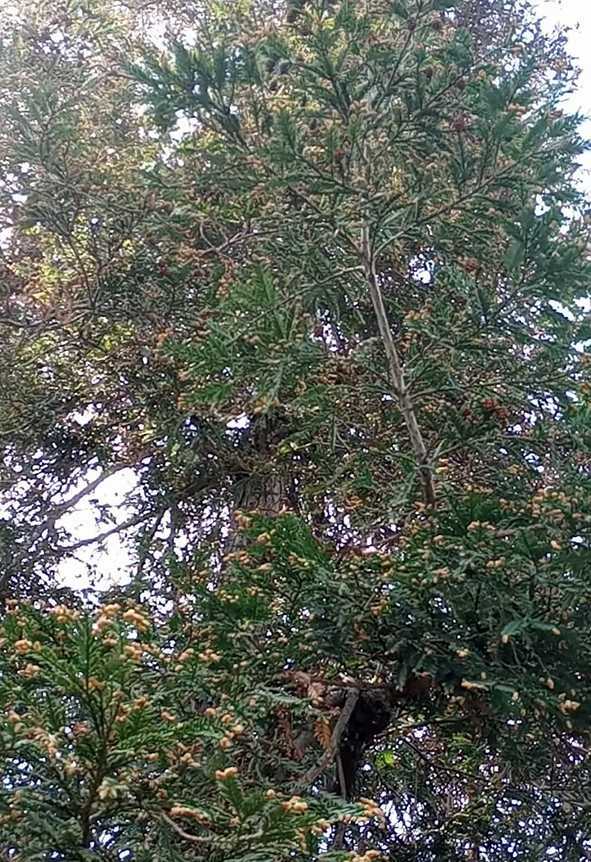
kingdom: Animalia
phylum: Chordata
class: Aves
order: Passeriformes
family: Parulidae
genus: Leiothlypis
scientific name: Leiothlypis celata
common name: Orange-crowned warbler
